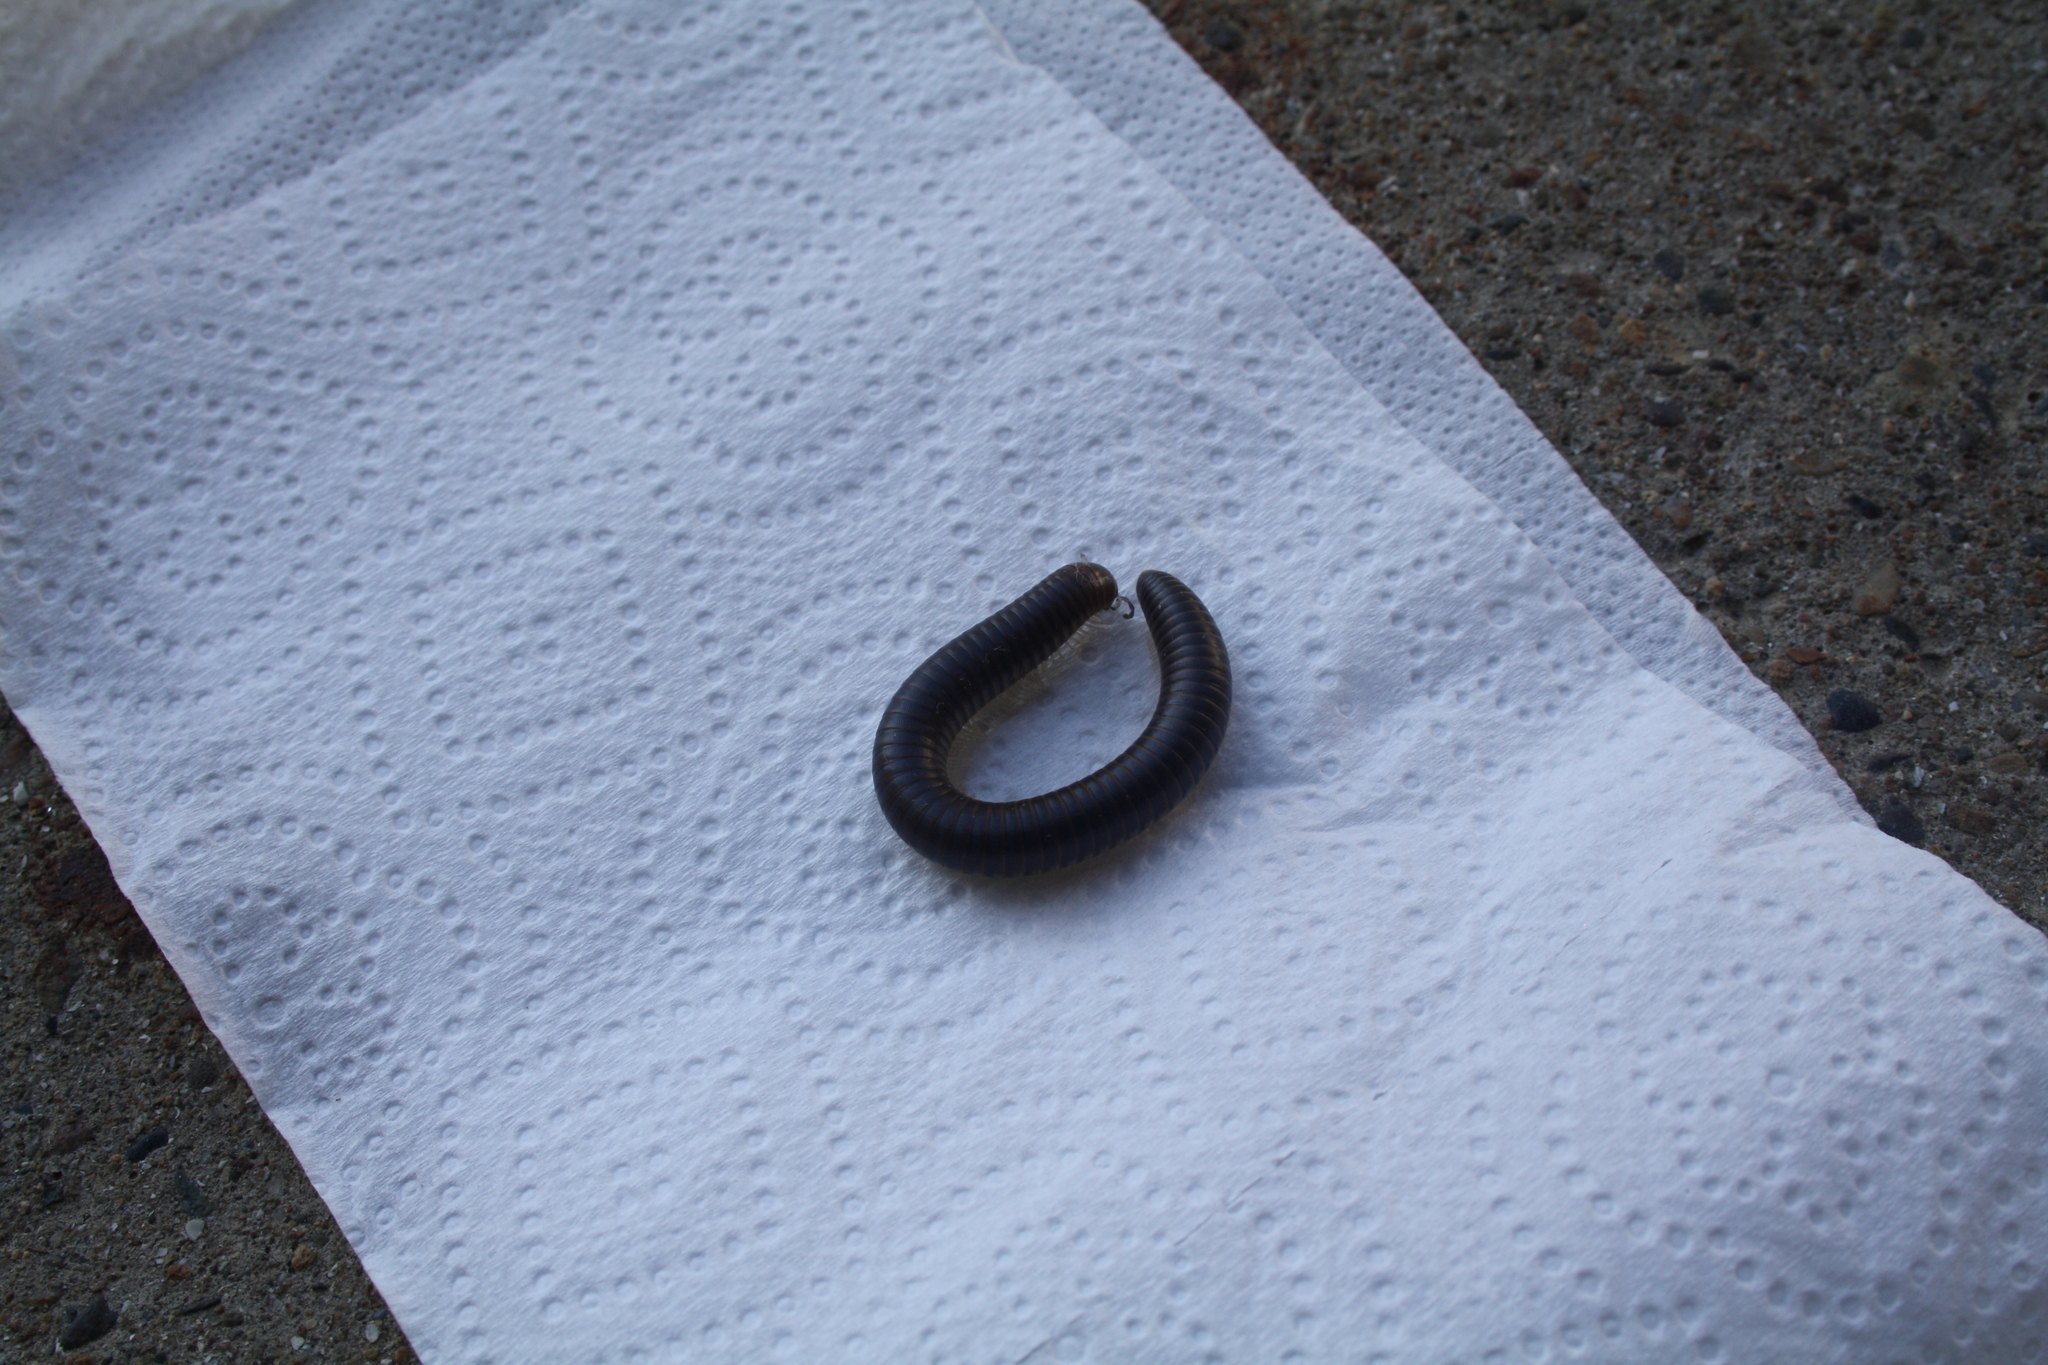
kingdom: Animalia
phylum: Arthropoda
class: Diplopoda
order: Julida
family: Julidae
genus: Pachyiulus
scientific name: Pachyiulus flavipes
